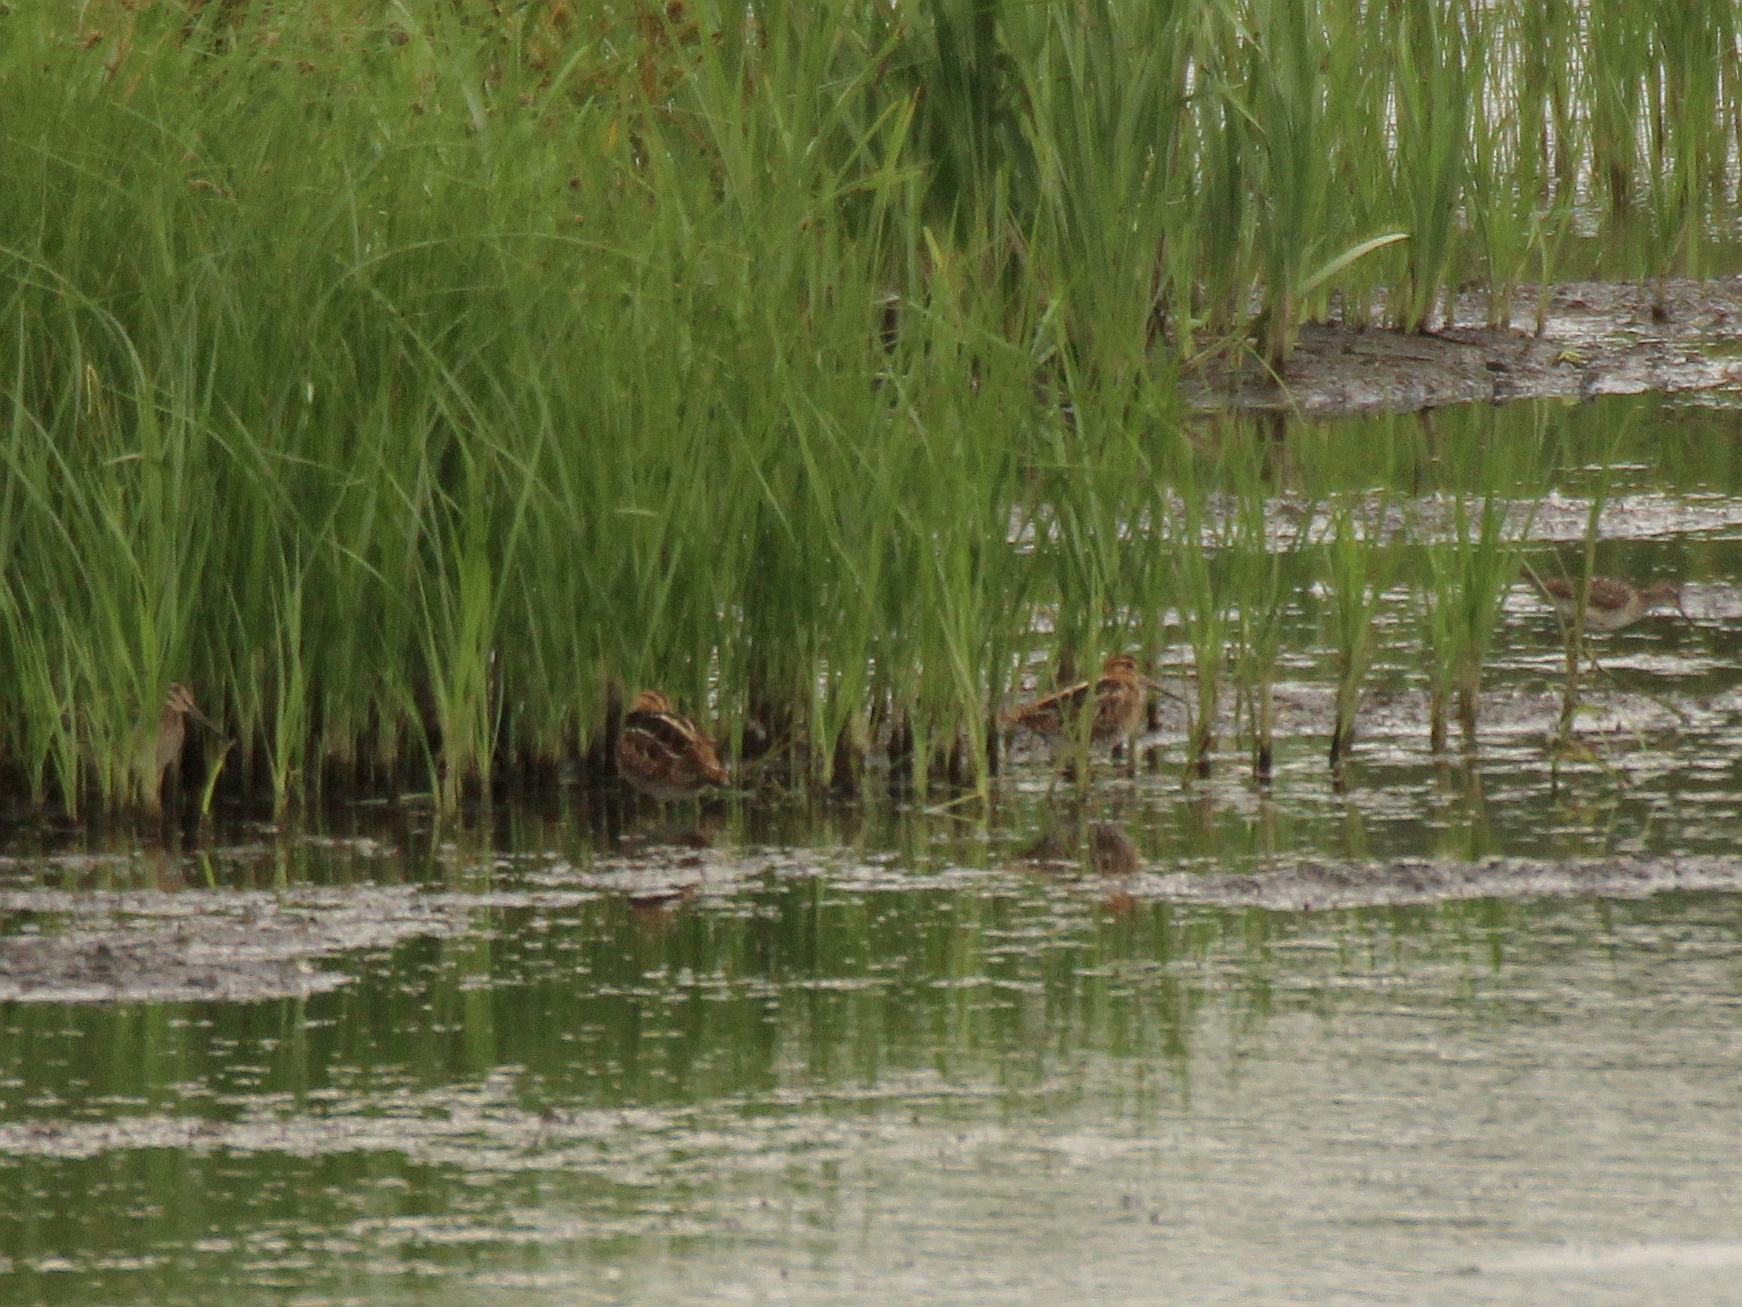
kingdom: Animalia
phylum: Chordata
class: Aves
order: Charadriiformes
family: Scolopacidae
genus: Gallinago
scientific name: Gallinago gallinago
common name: Common snipe
